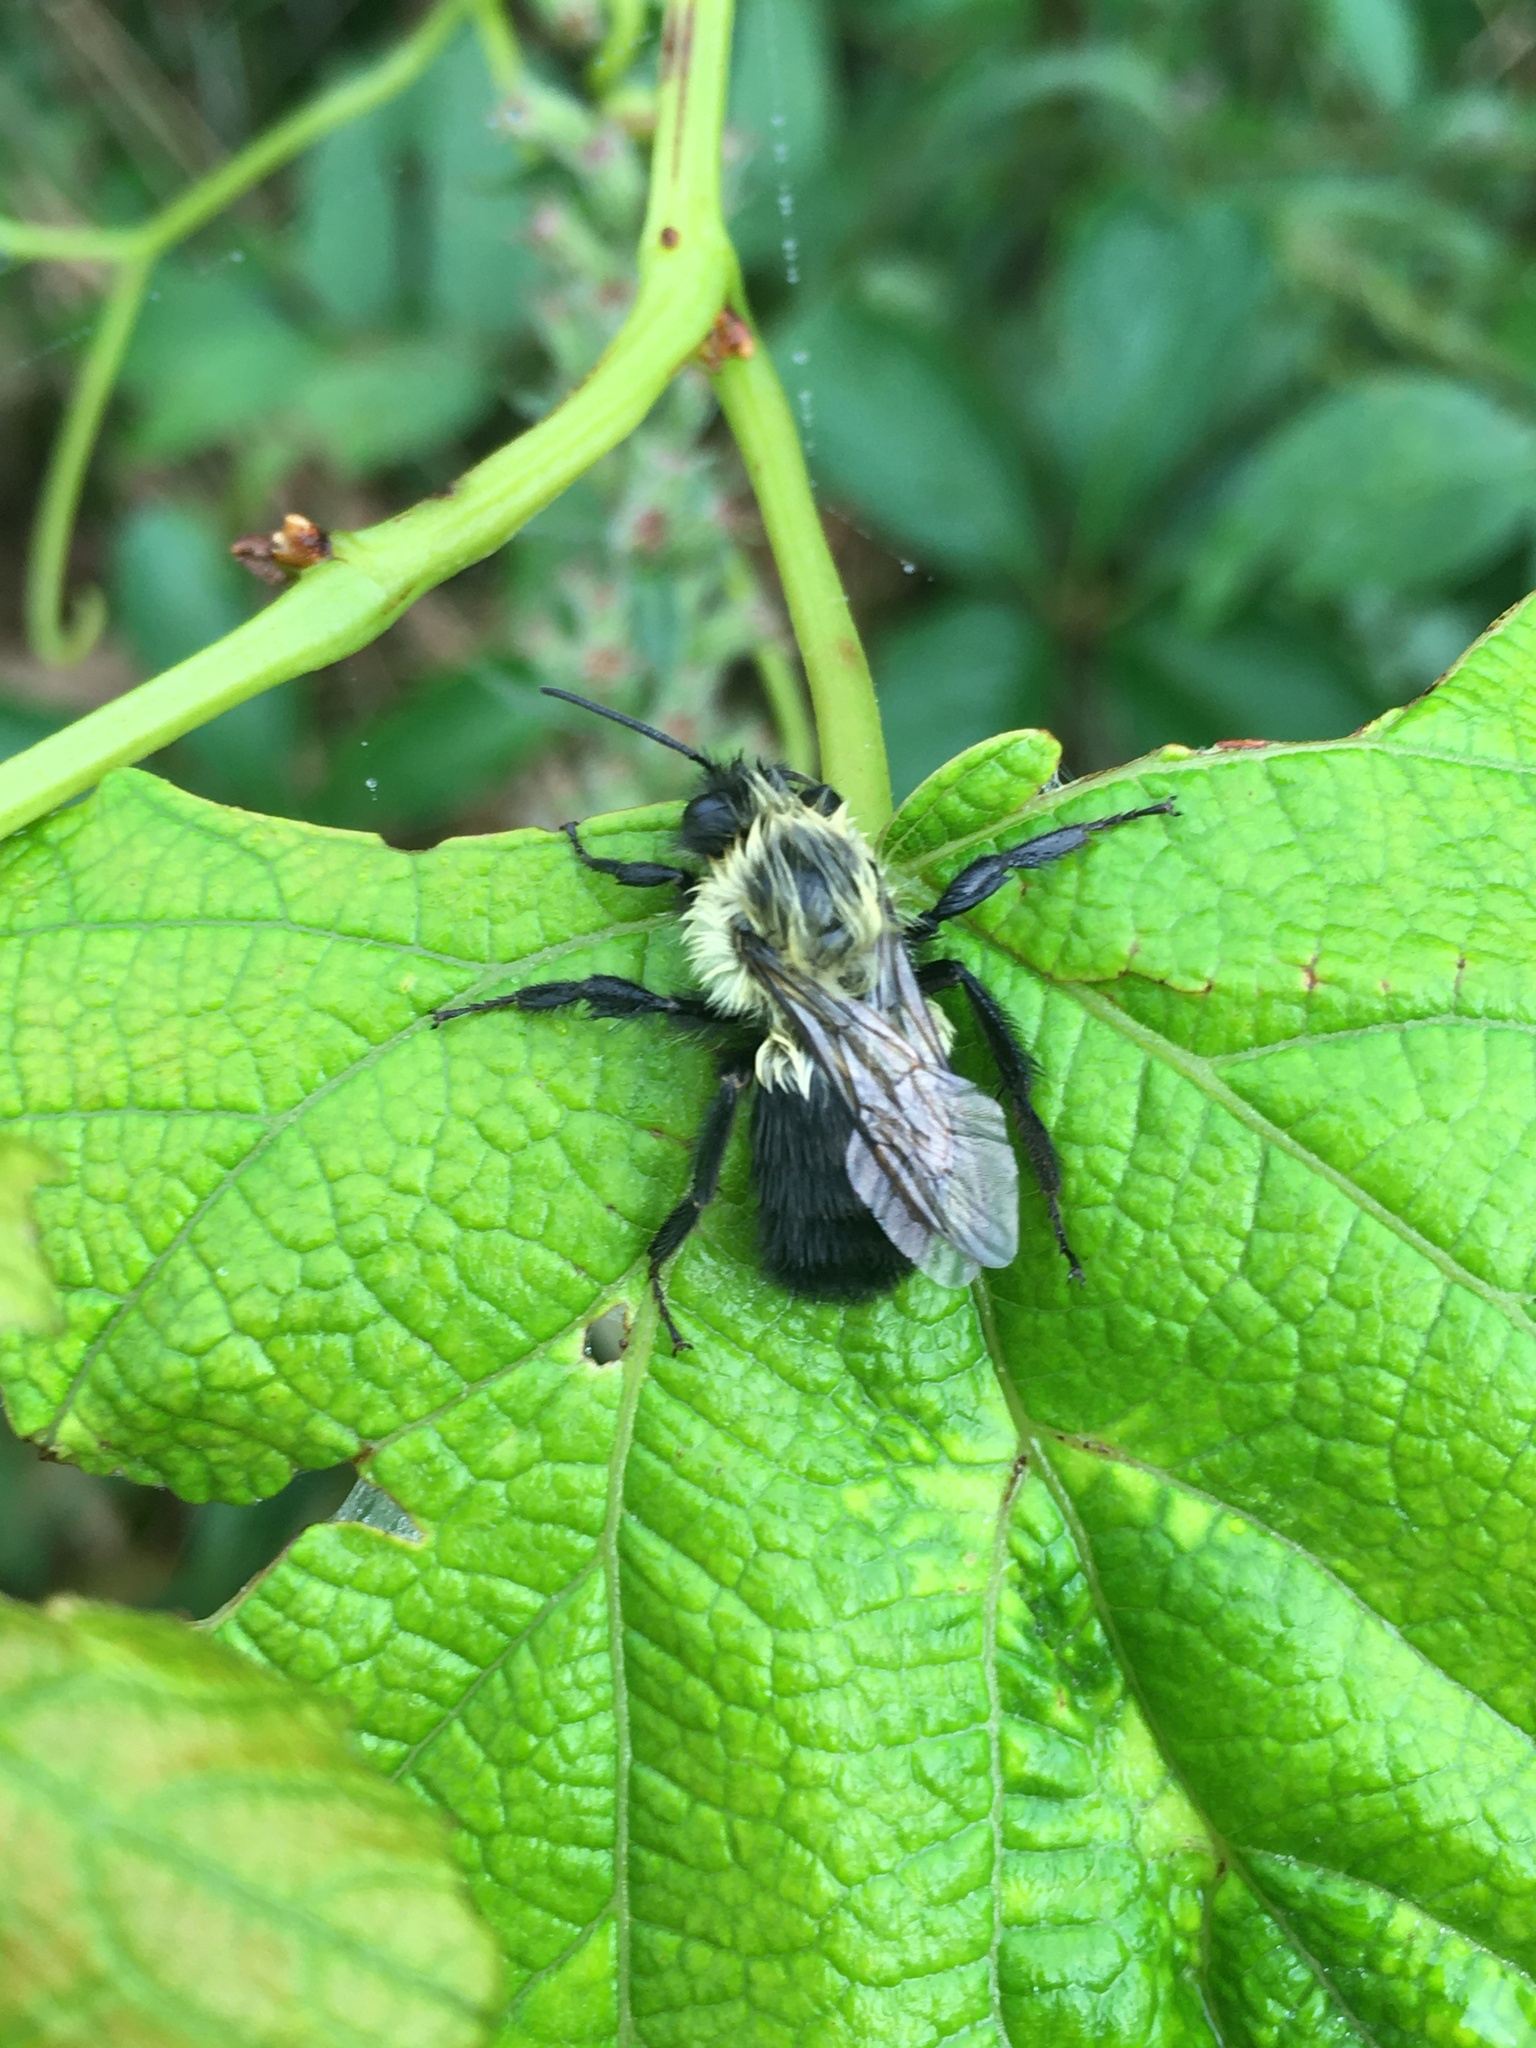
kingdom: Animalia
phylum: Arthropoda
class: Insecta
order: Hymenoptera
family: Apidae
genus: Bombus
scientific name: Bombus impatiens
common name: Common eastern bumble bee
